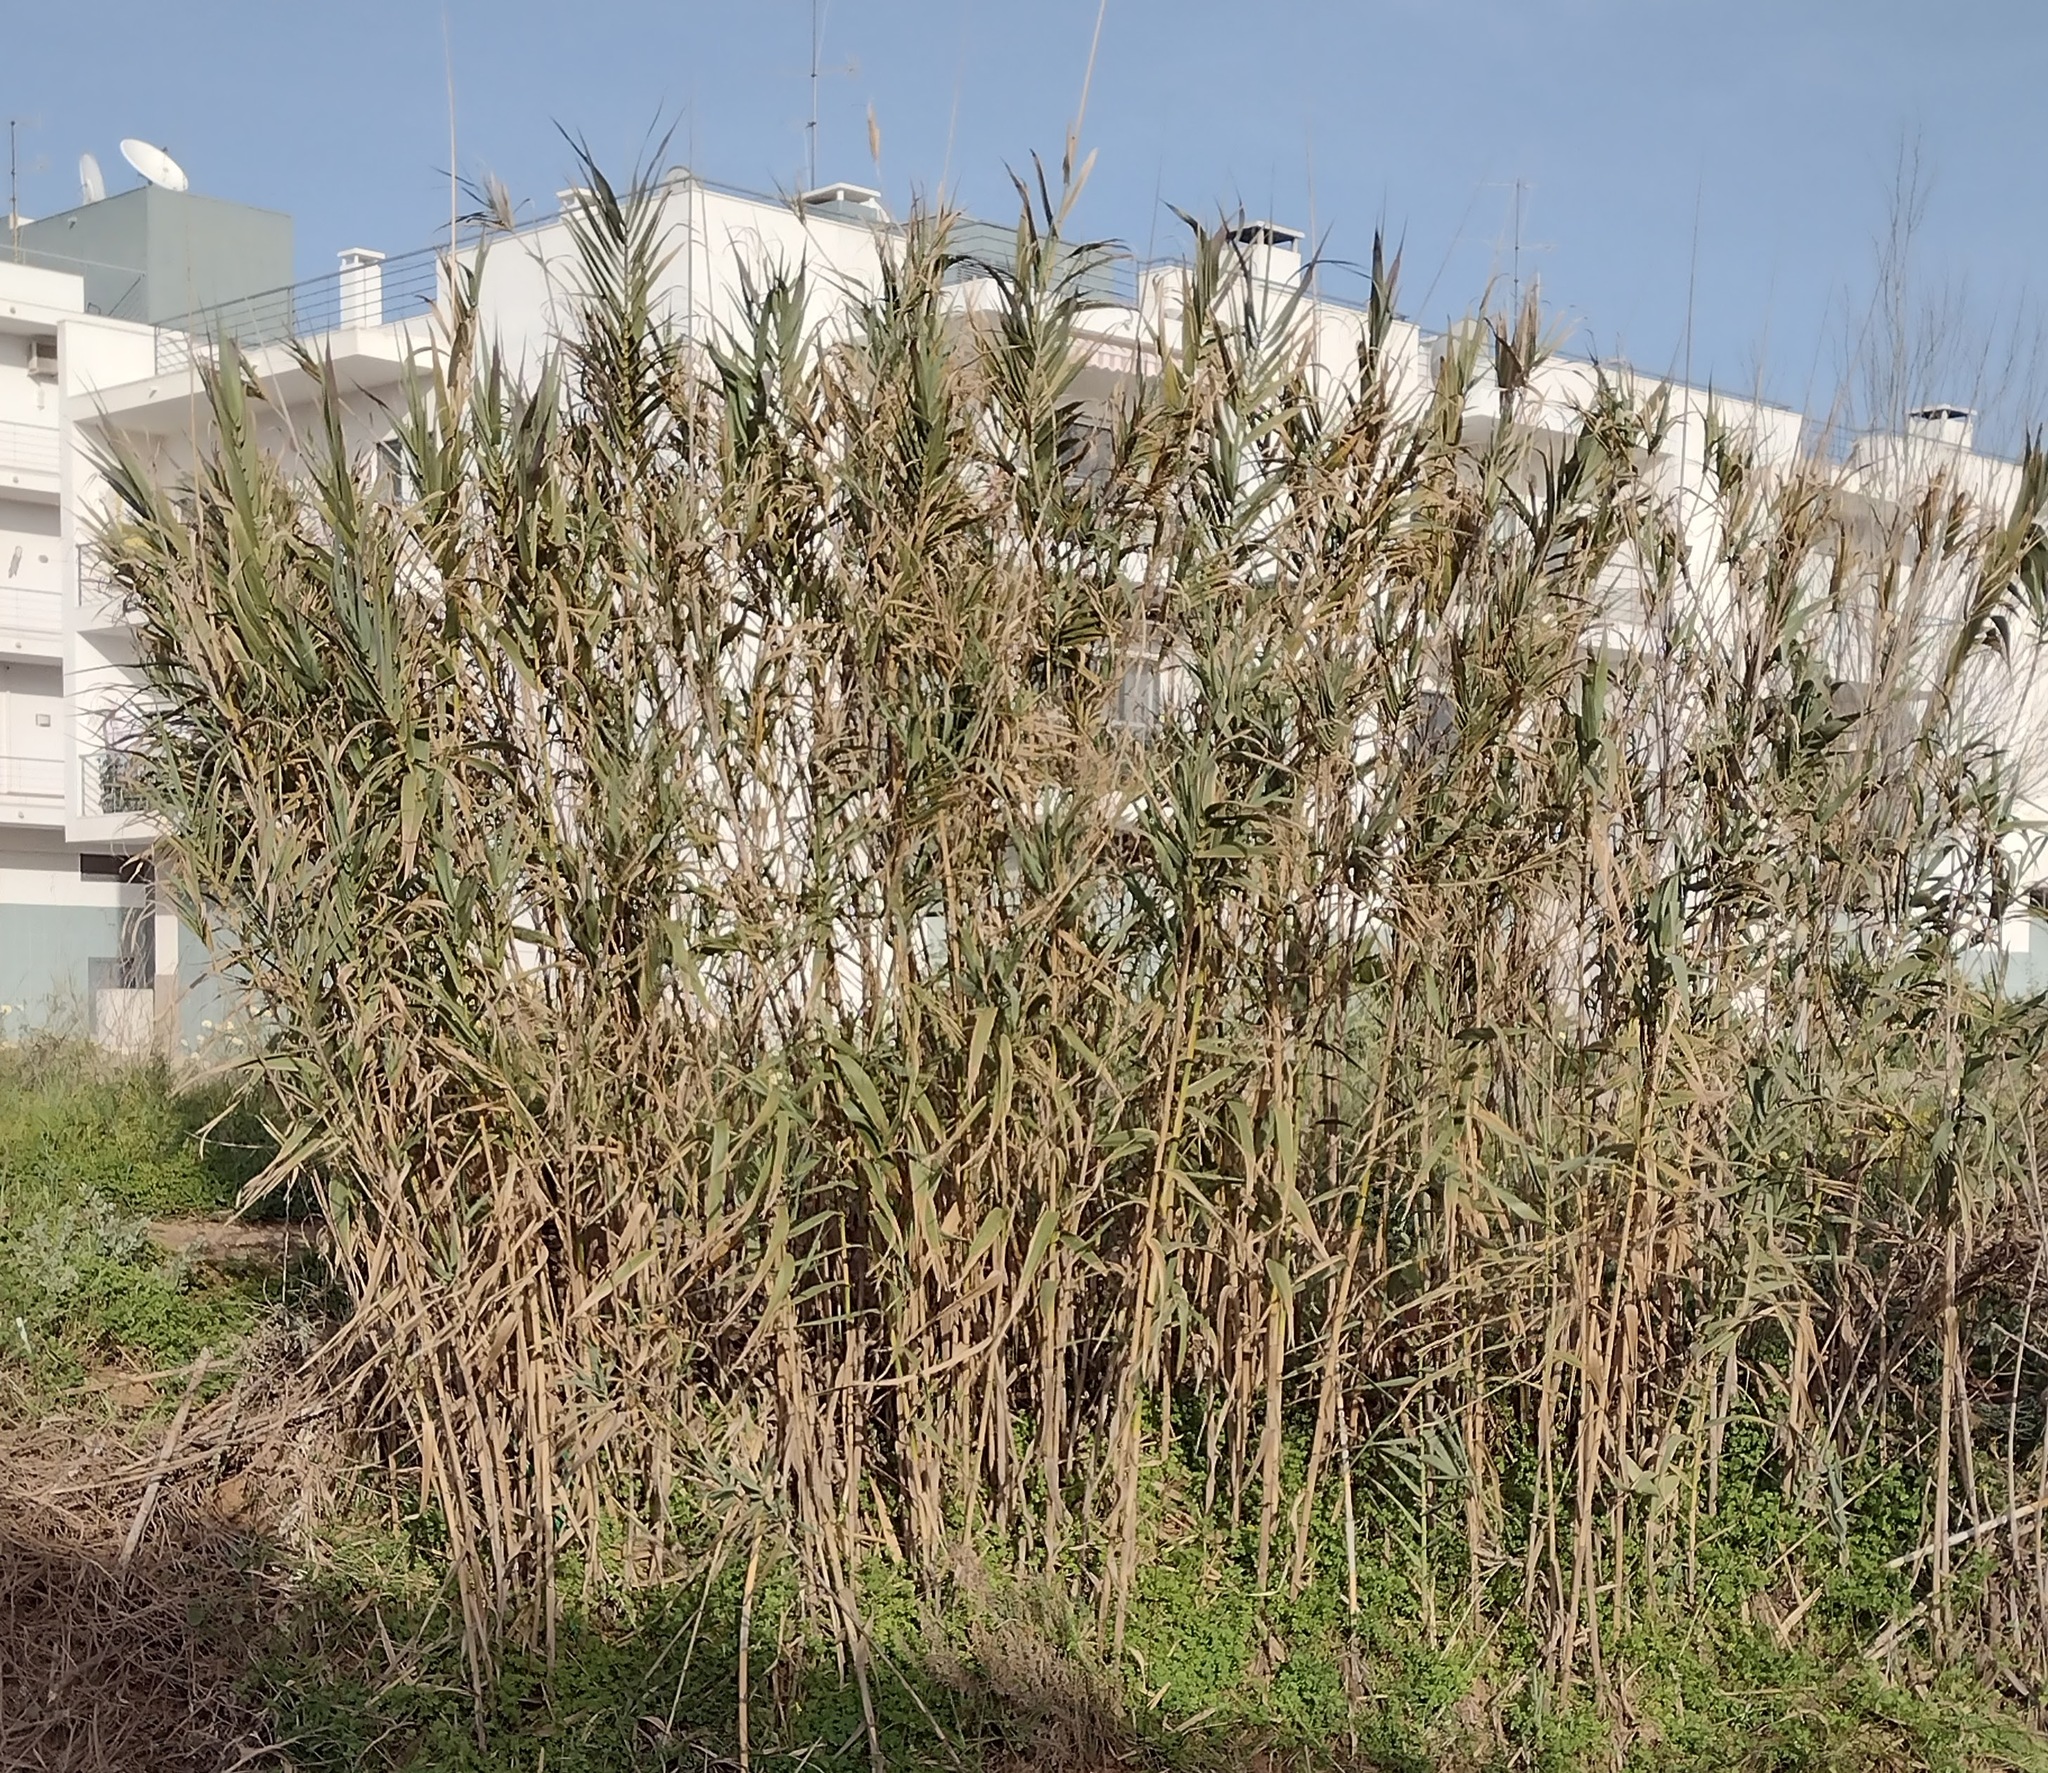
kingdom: Plantae
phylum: Tracheophyta
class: Liliopsida
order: Poales
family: Poaceae
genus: Arundo
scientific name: Arundo donax
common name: Giant reed
